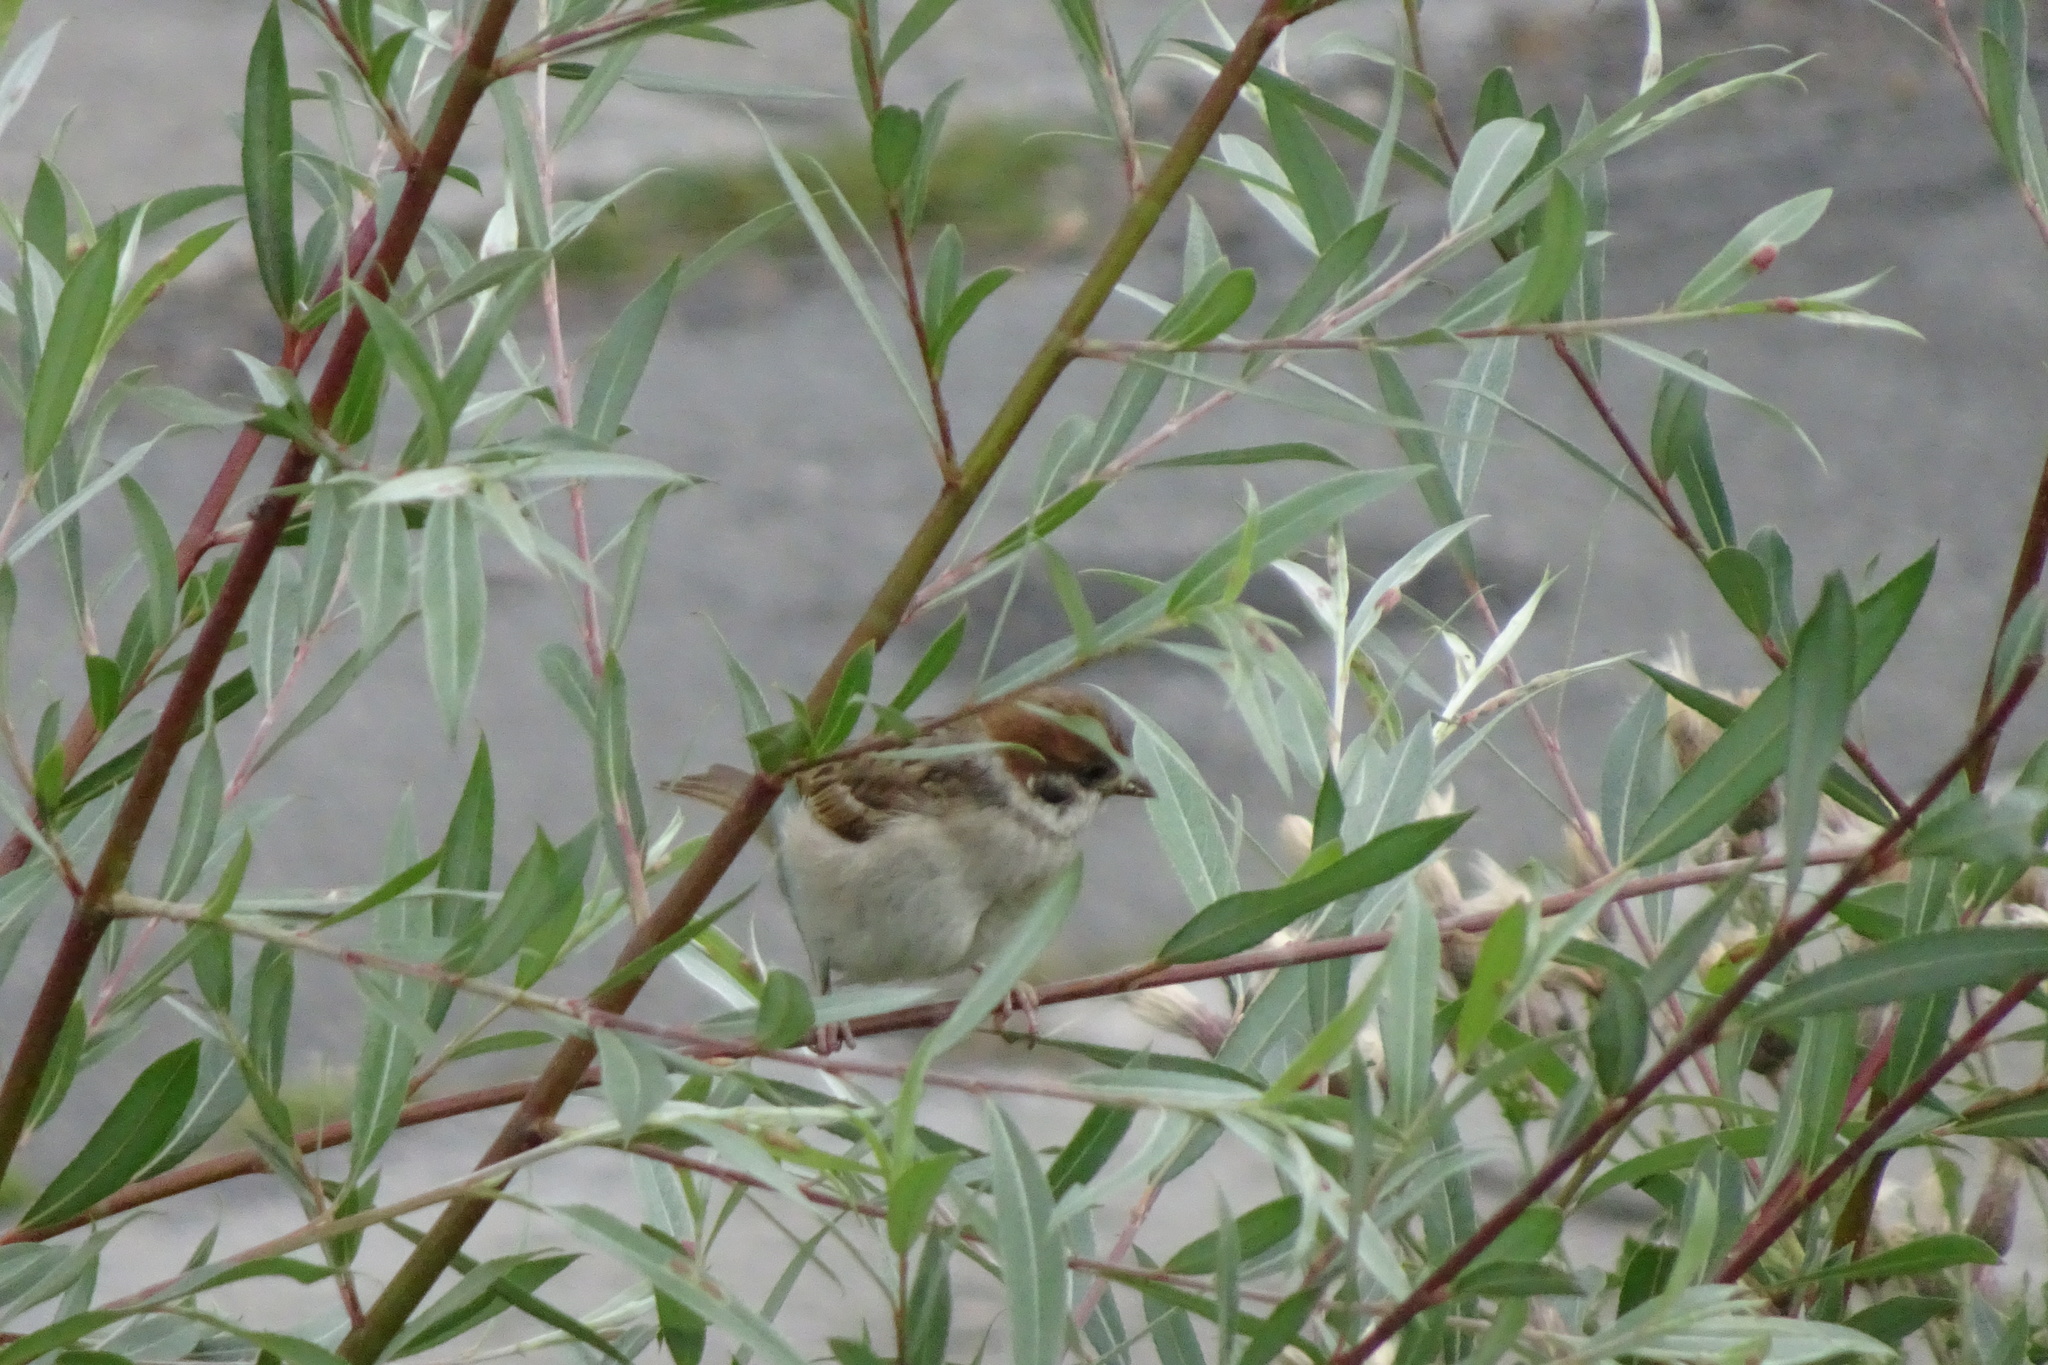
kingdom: Animalia
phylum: Chordata
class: Aves
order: Passeriformes
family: Passeridae
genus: Passer
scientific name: Passer montanus
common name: Eurasian tree sparrow
